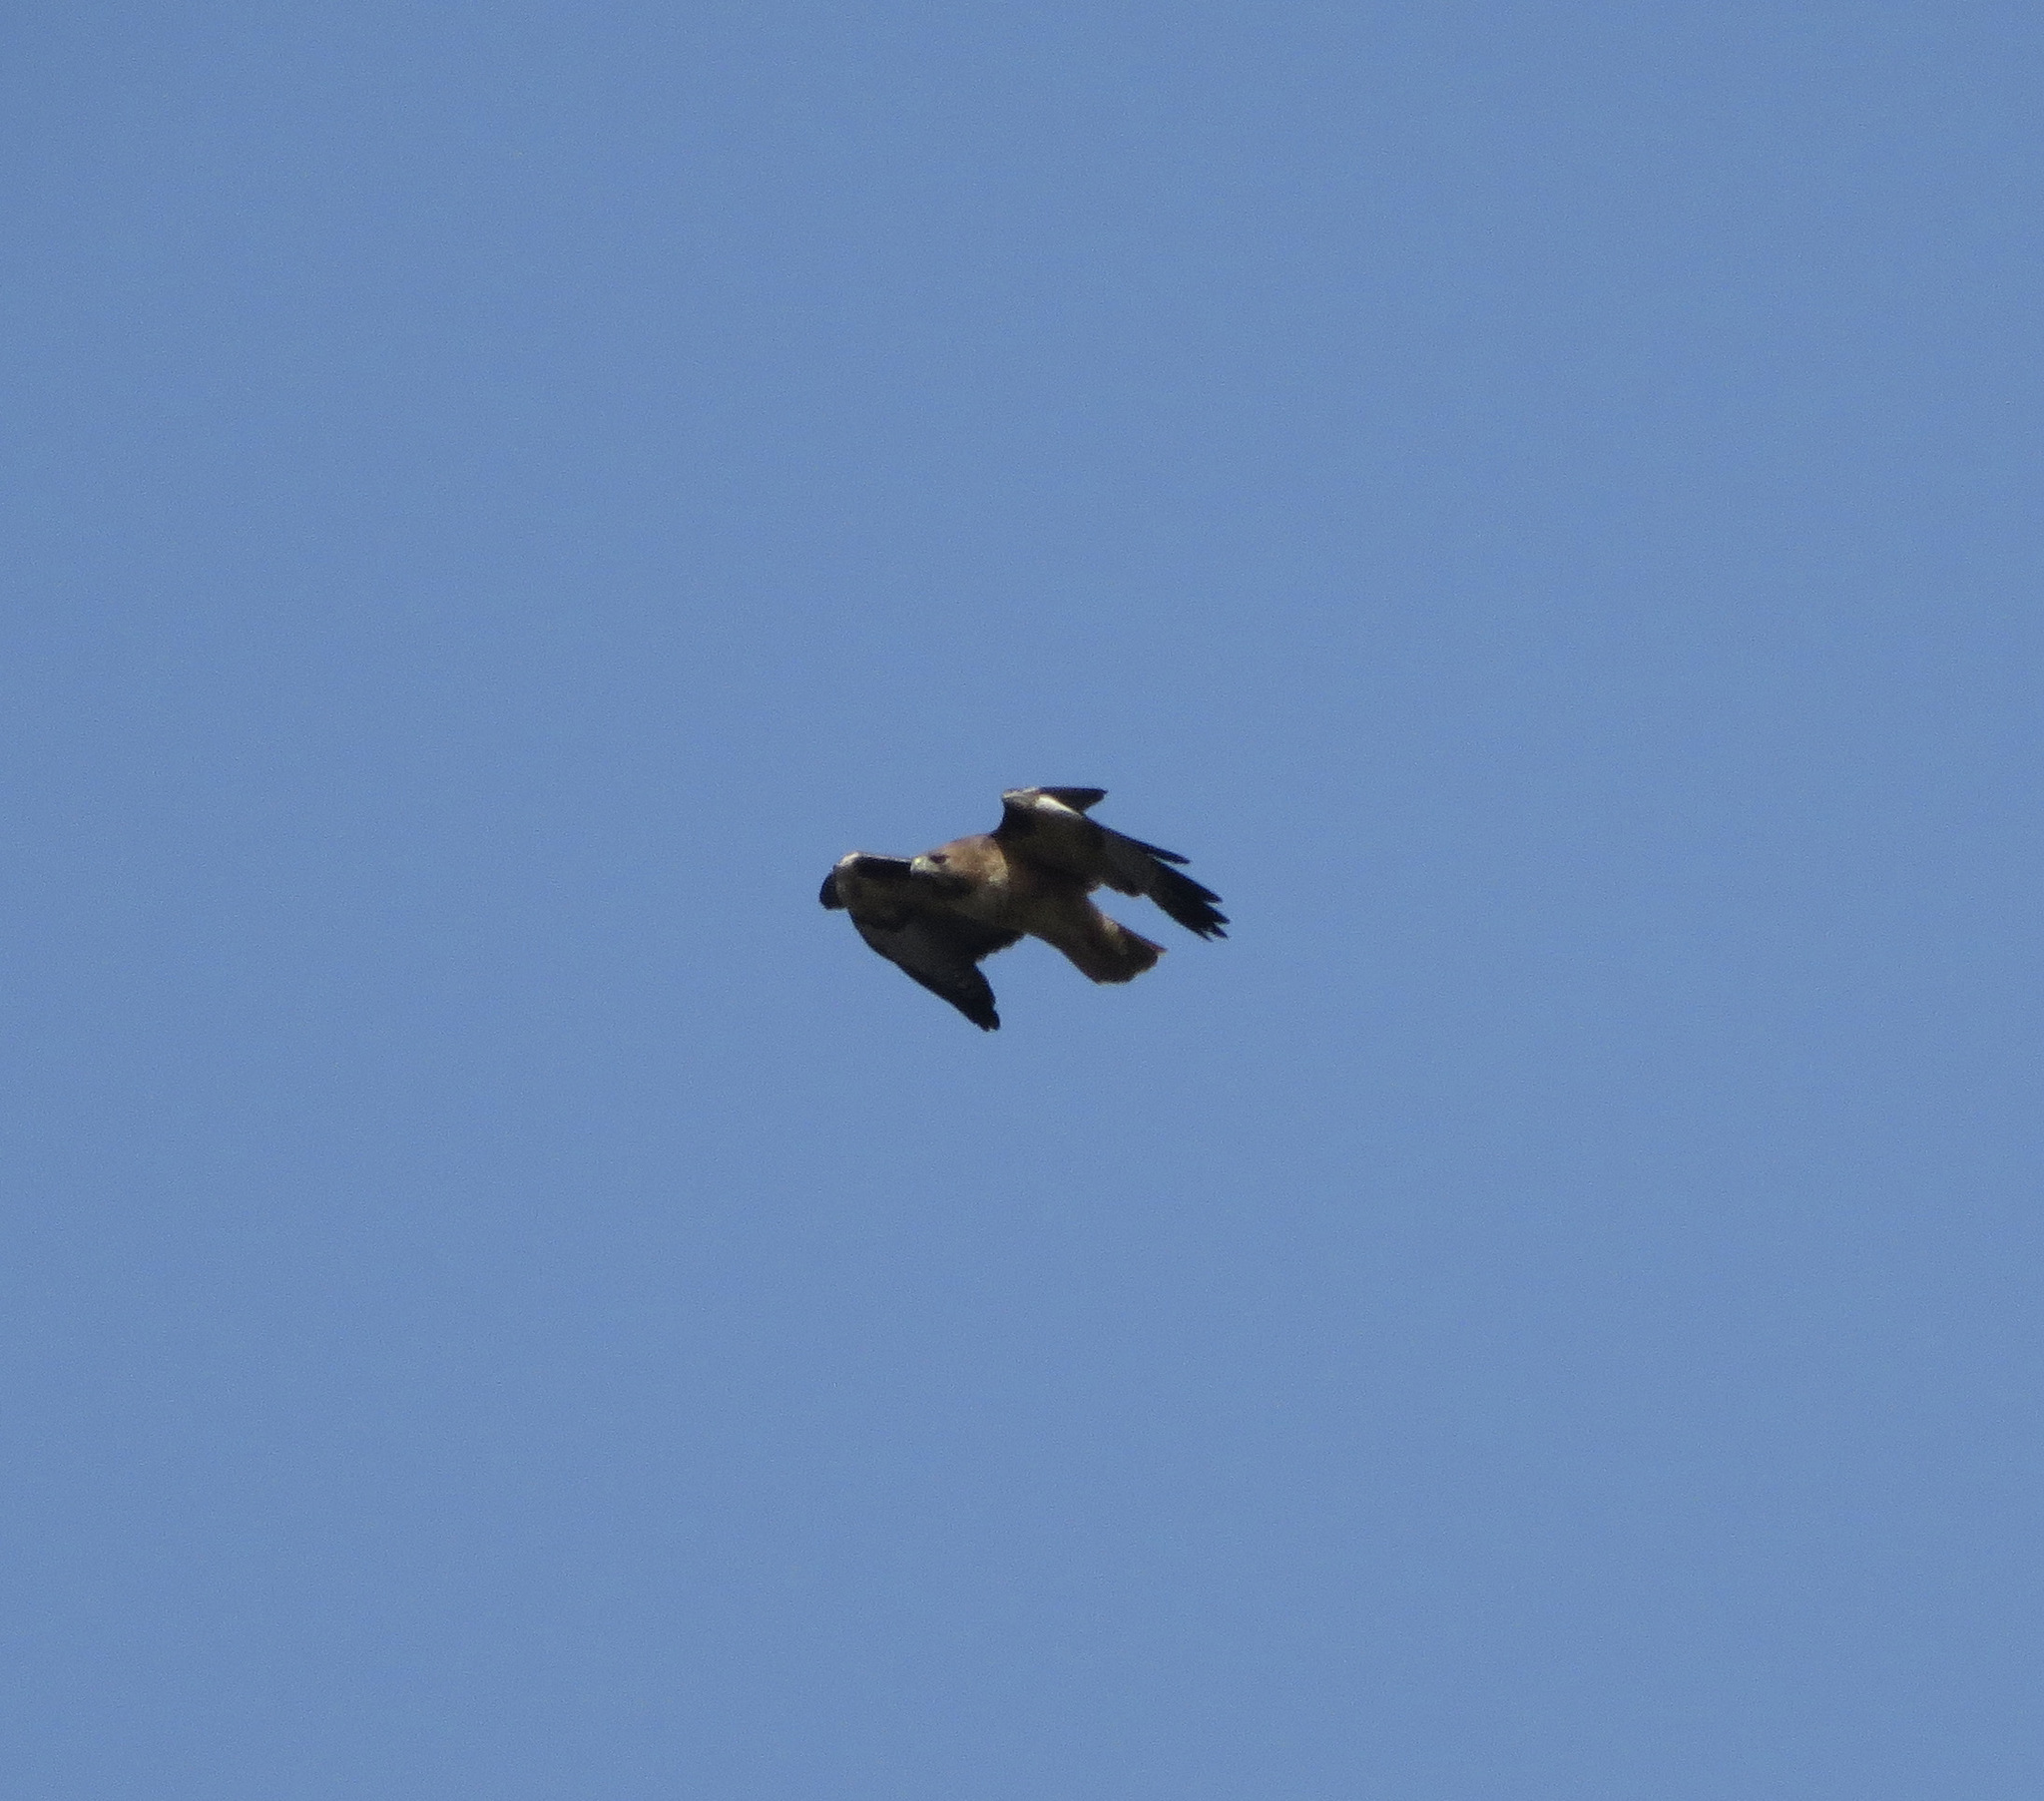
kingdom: Animalia
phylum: Chordata
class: Aves
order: Accipitriformes
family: Accipitridae
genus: Buteo
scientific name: Buteo jamaicensis
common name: Red-tailed hawk
